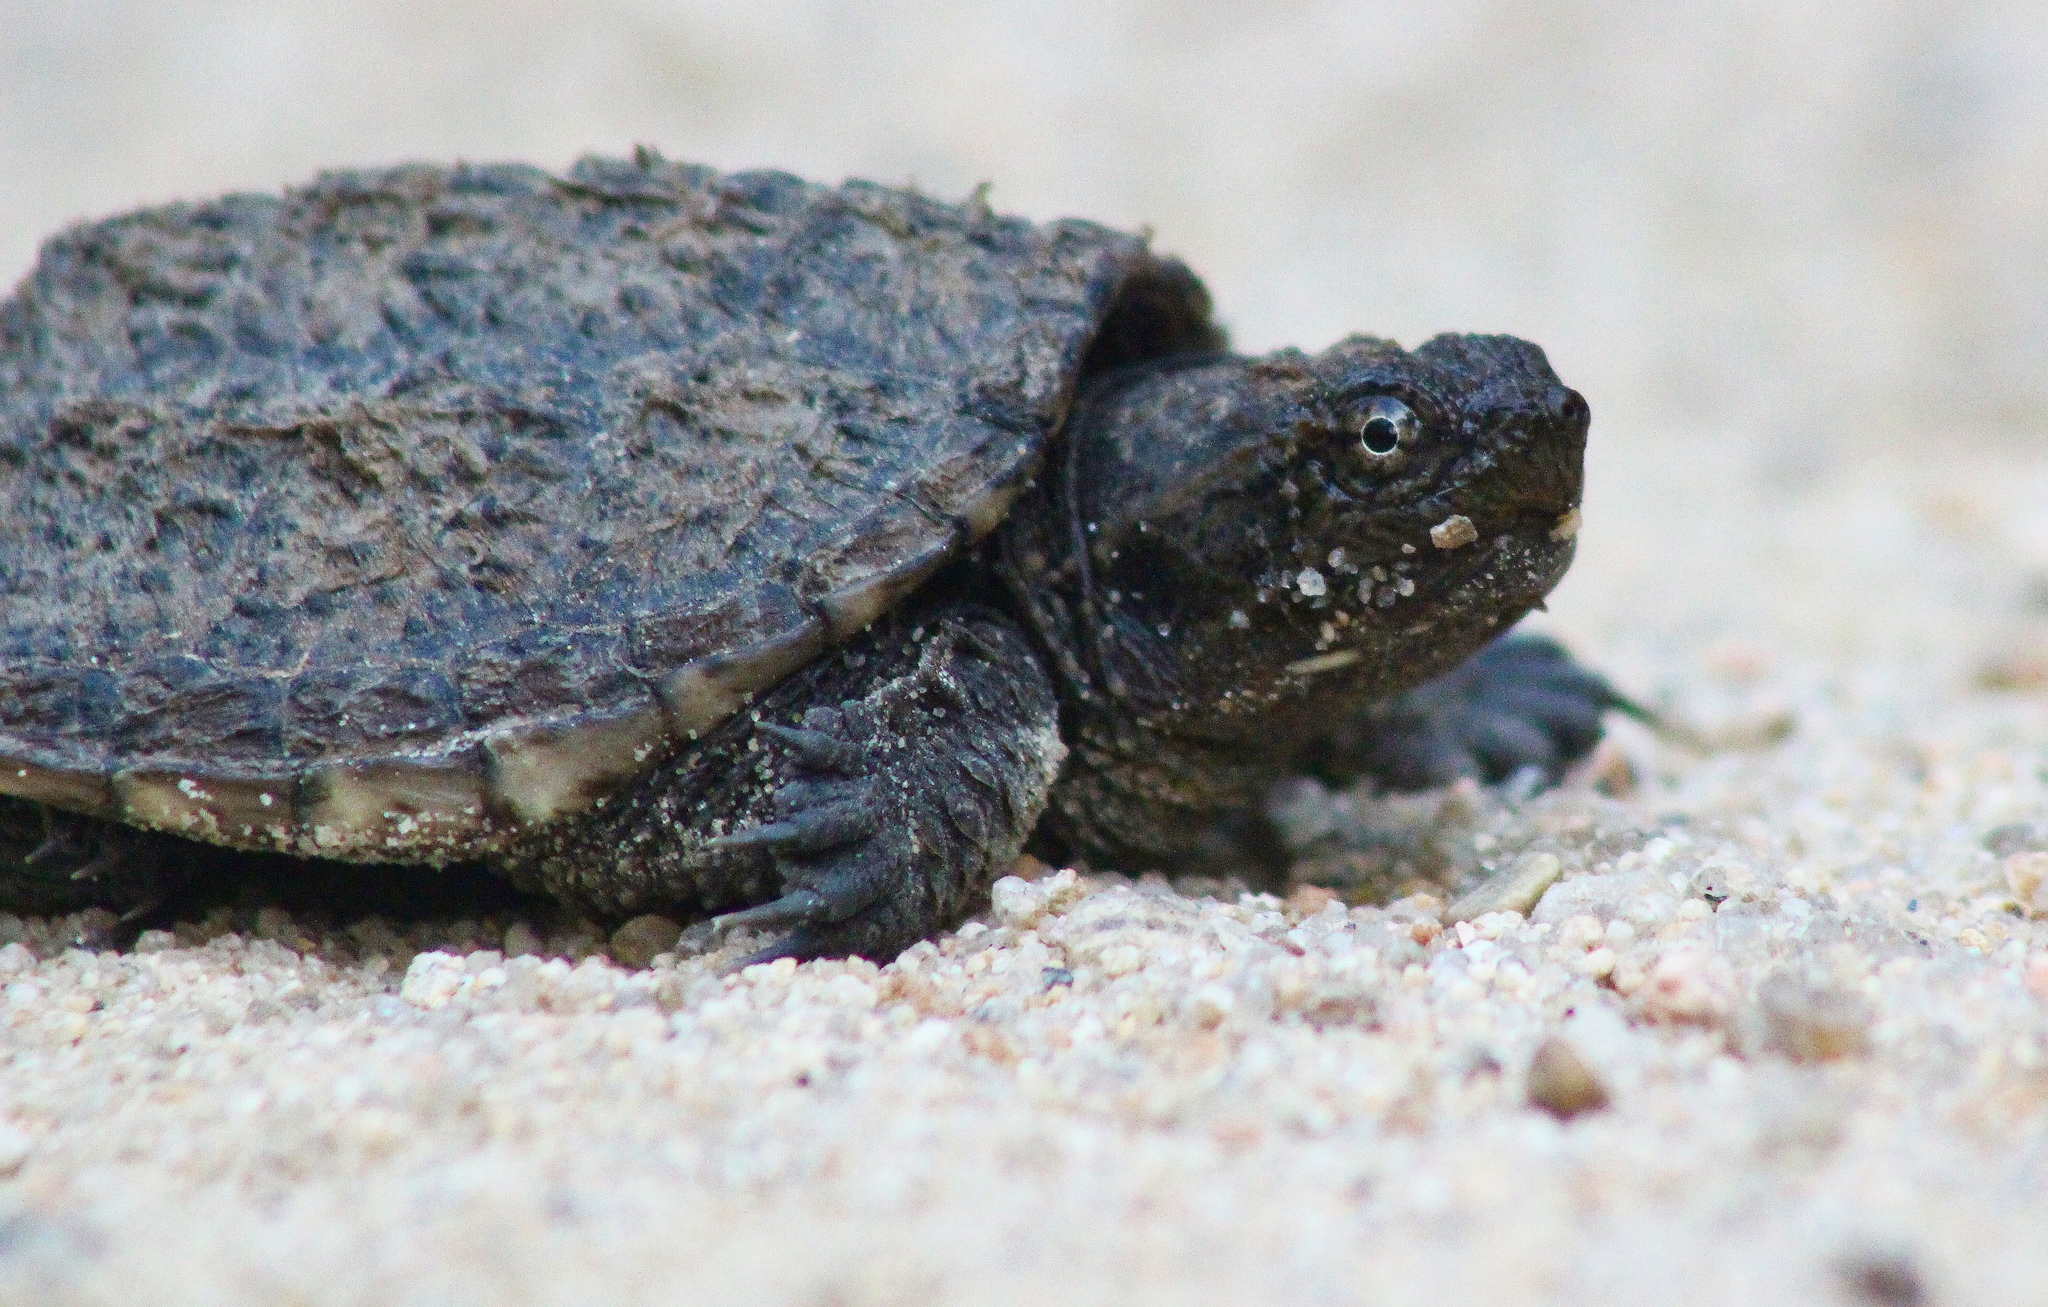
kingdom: Animalia
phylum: Chordata
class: Testudines
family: Chelydridae
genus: Chelydra
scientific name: Chelydra serpentina
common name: Common snapping turtle
